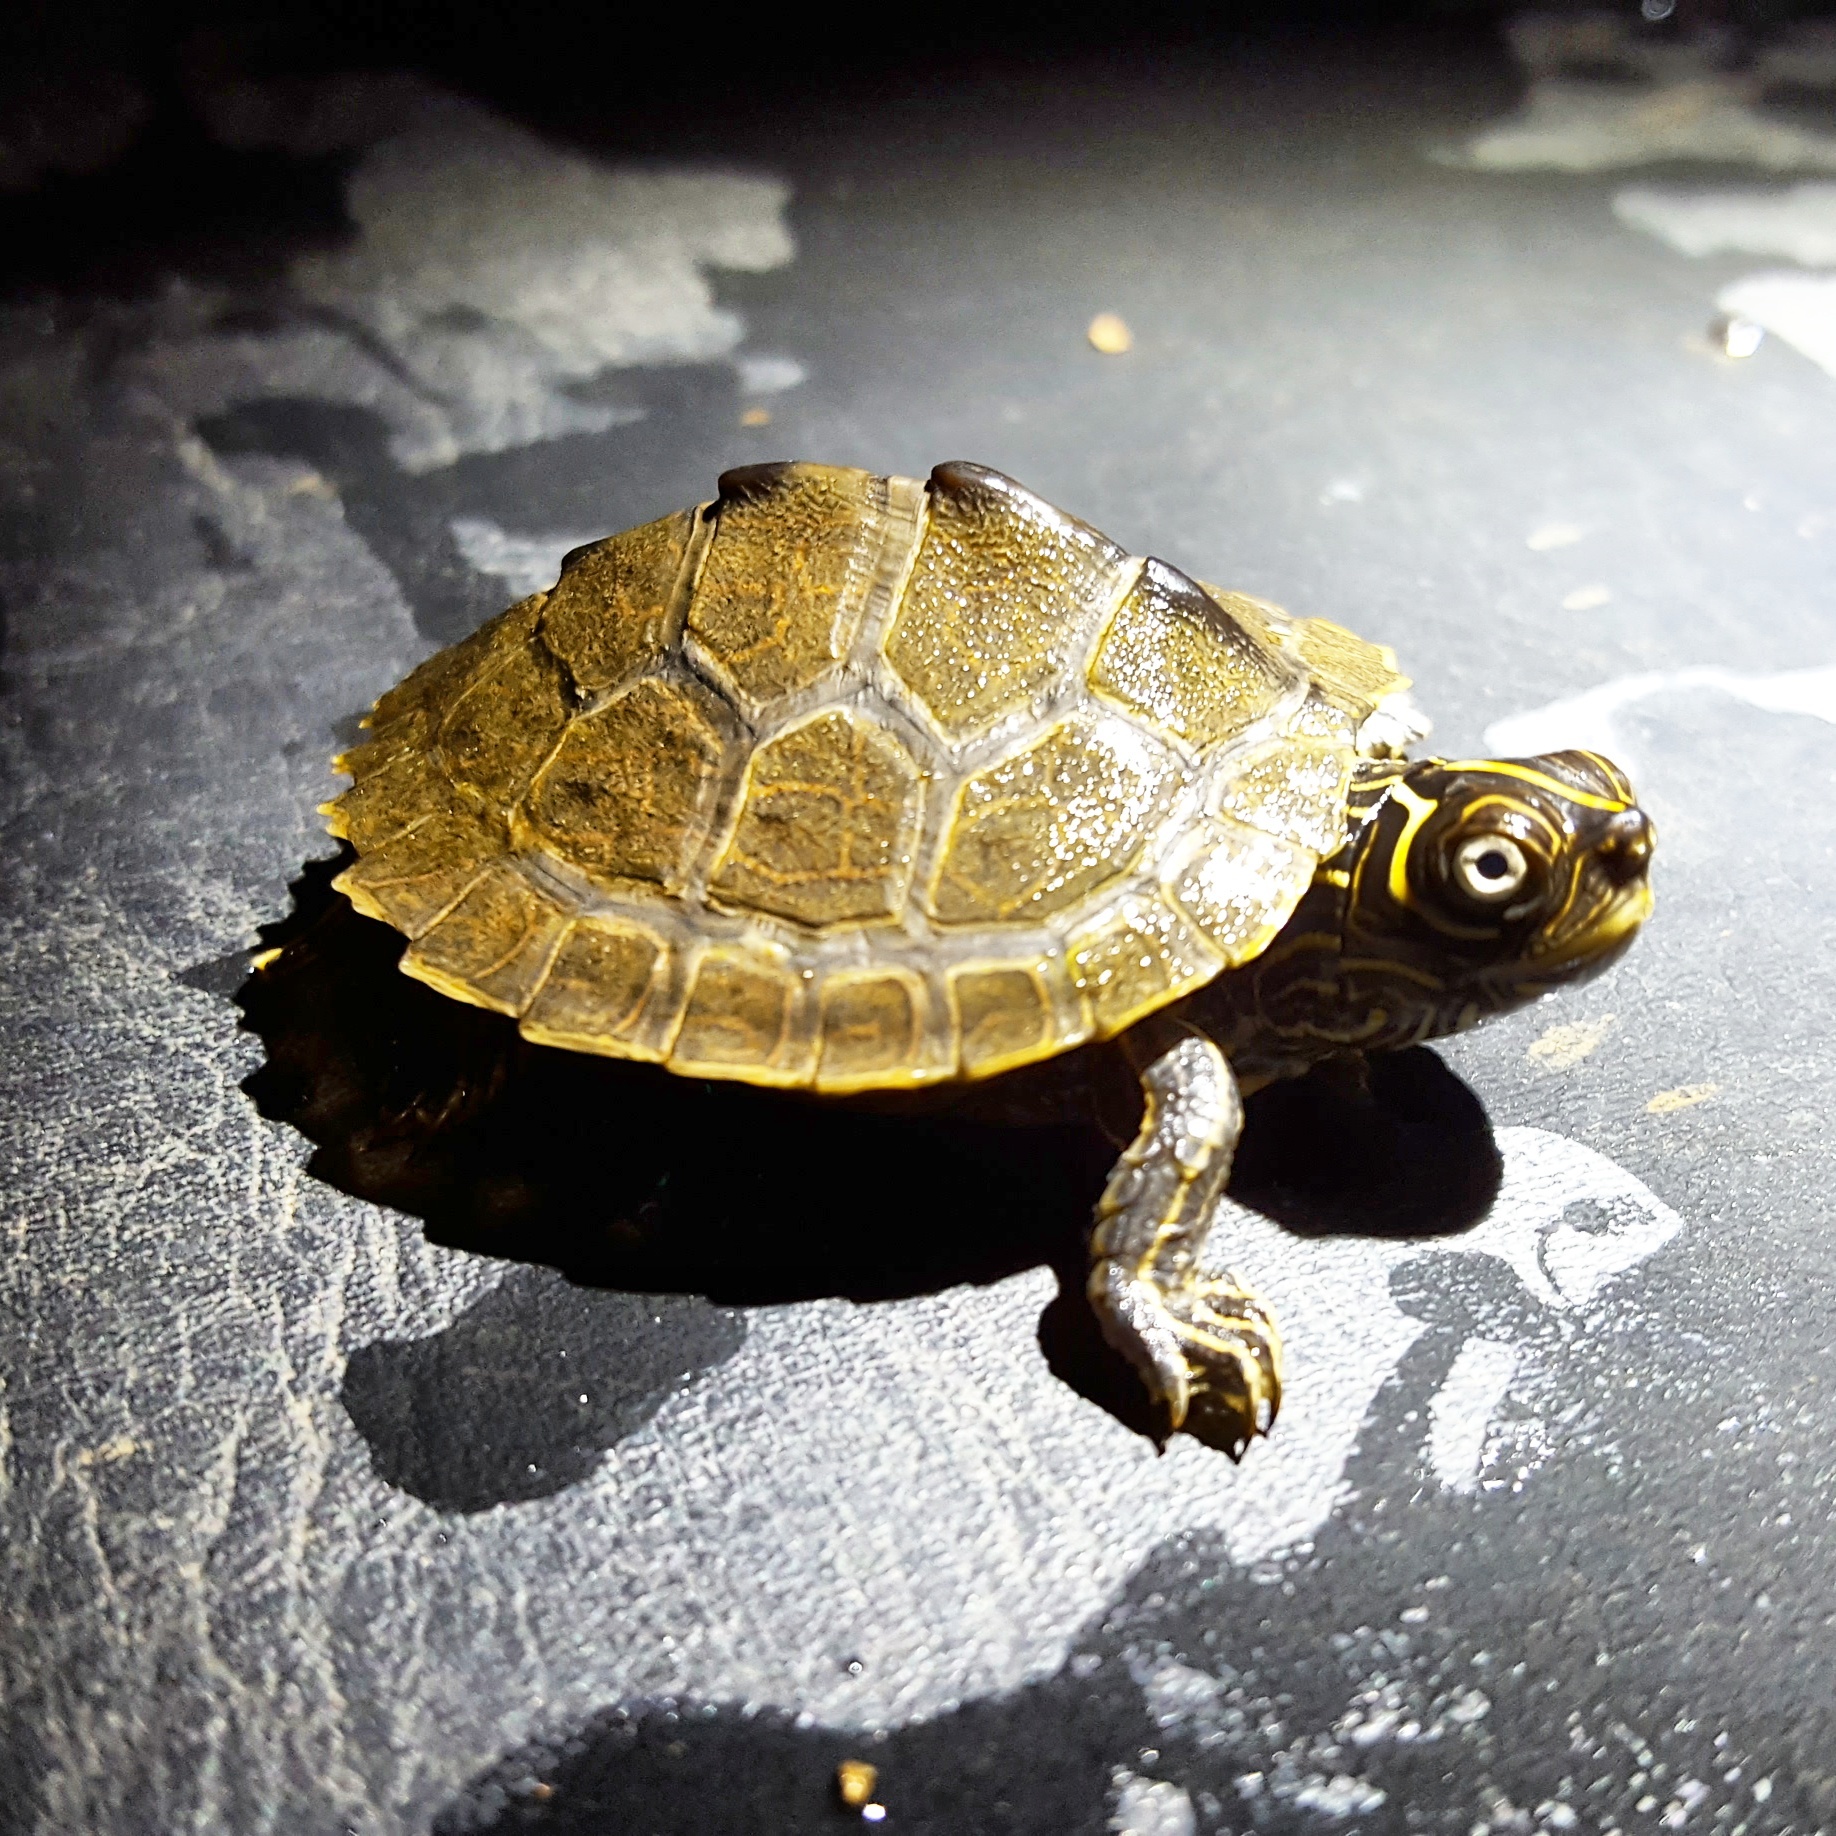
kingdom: Animalia
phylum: Chordata
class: Testudines
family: Emydidae
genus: Graptemys
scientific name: Graptemys pseudogeographica
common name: False map turtle
